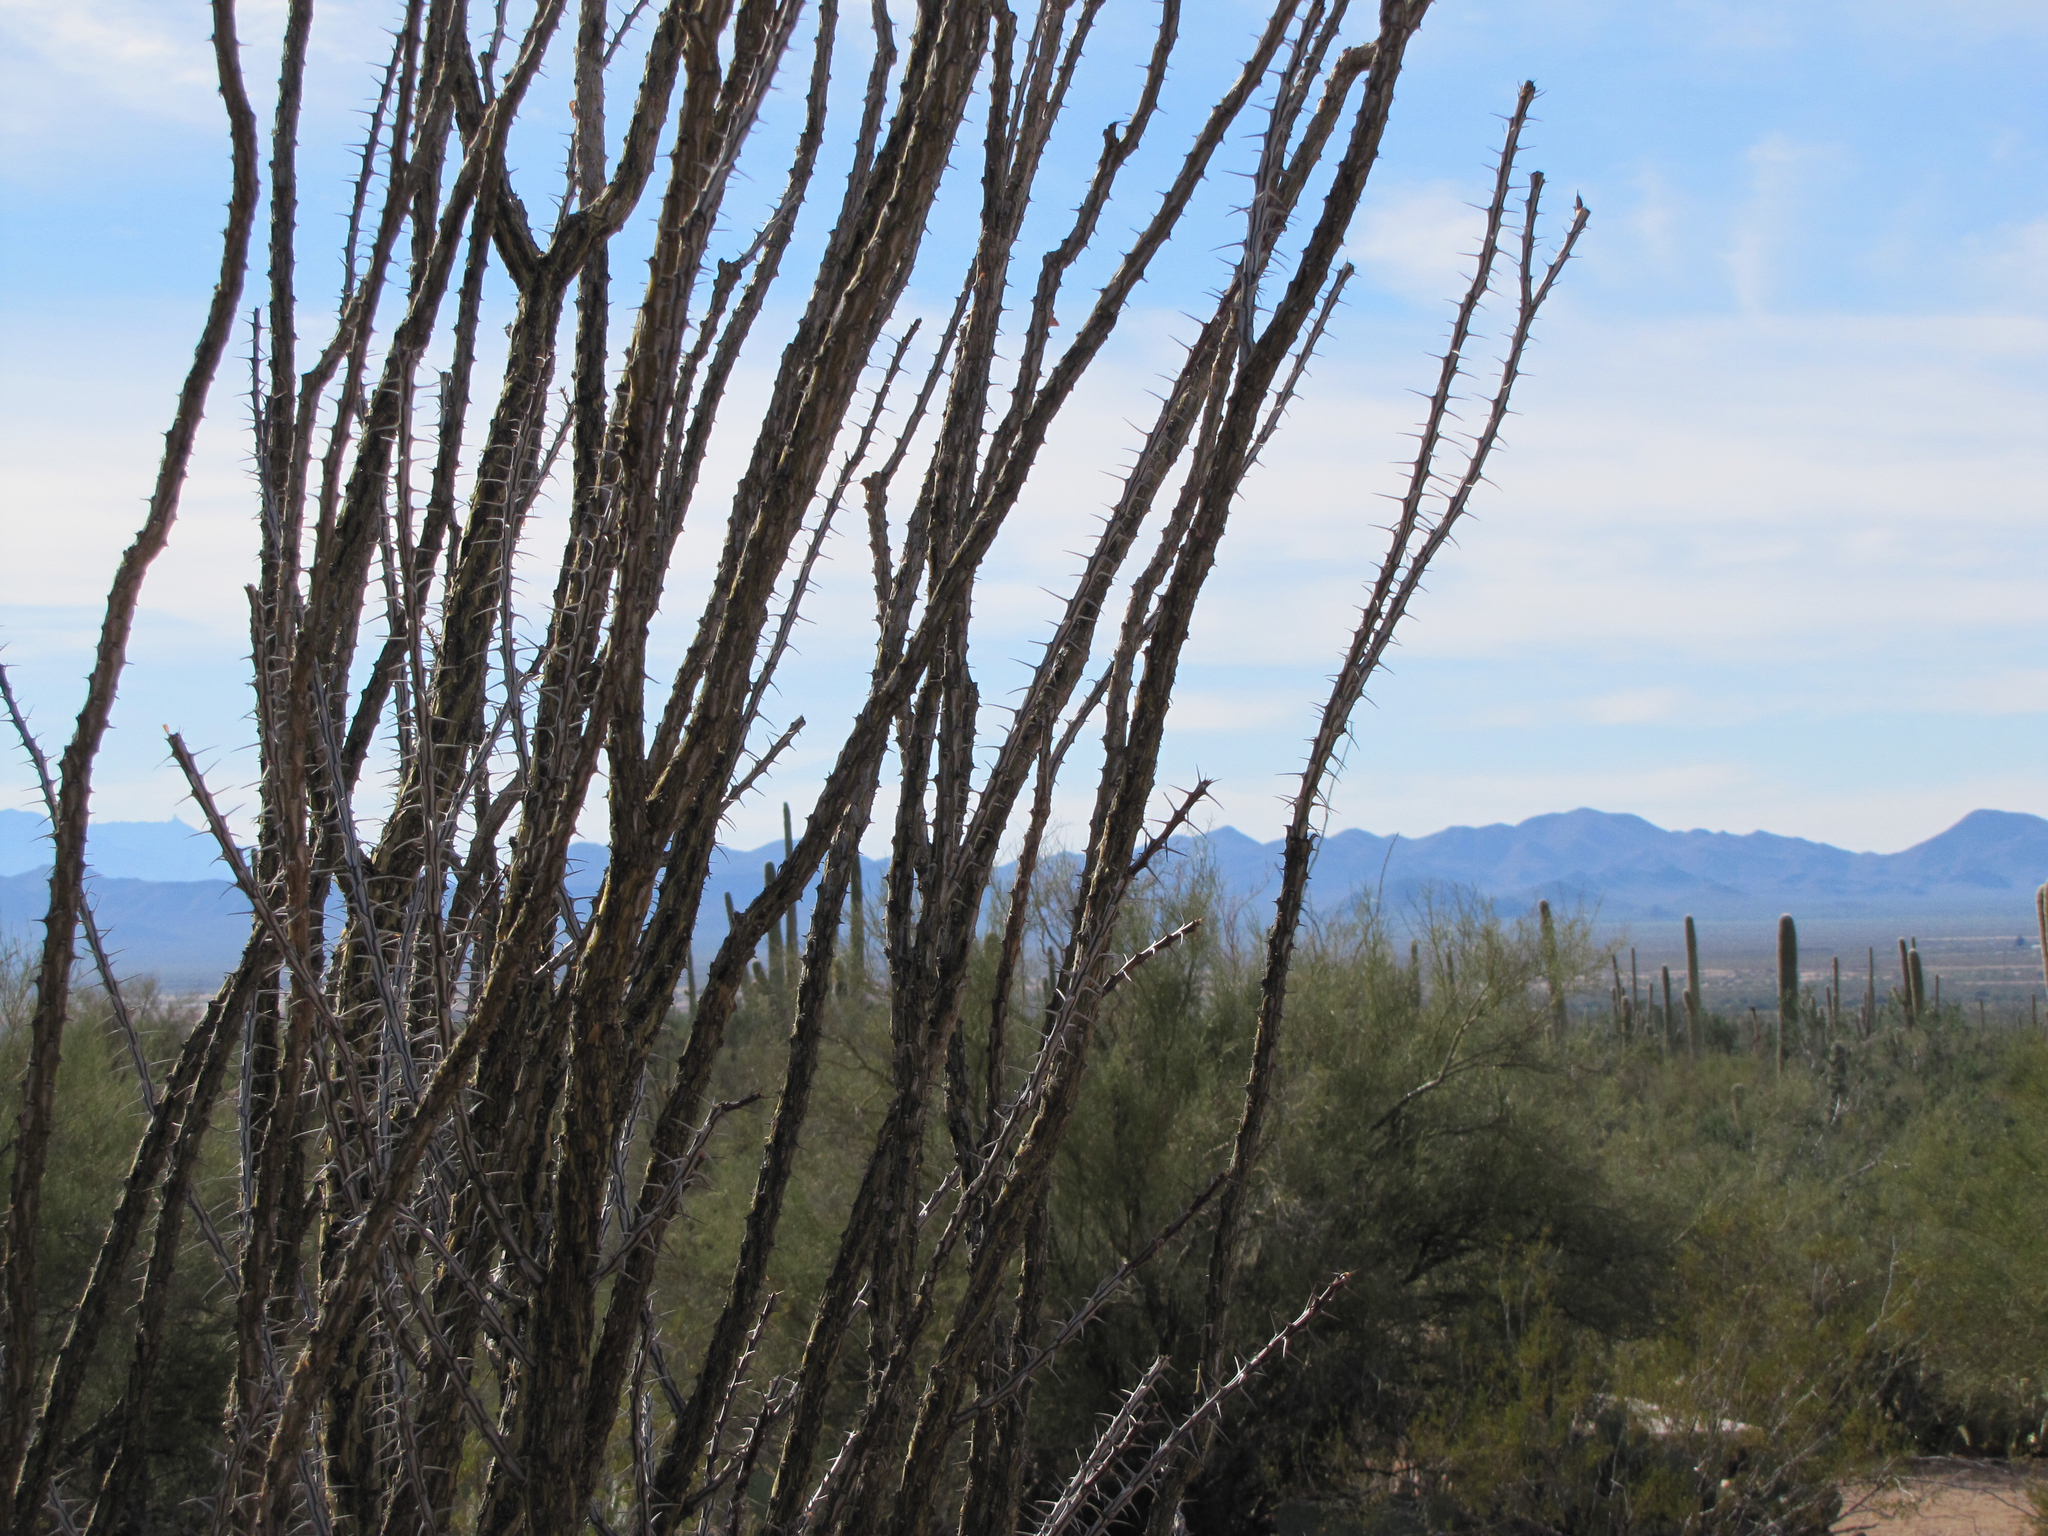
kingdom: Plantae
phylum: Tracheophyta
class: Magnoliopsida
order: Ericales
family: Fouquieriaceae
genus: Fouquieria
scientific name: Fouquieria splendens
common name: Vine-cactus
